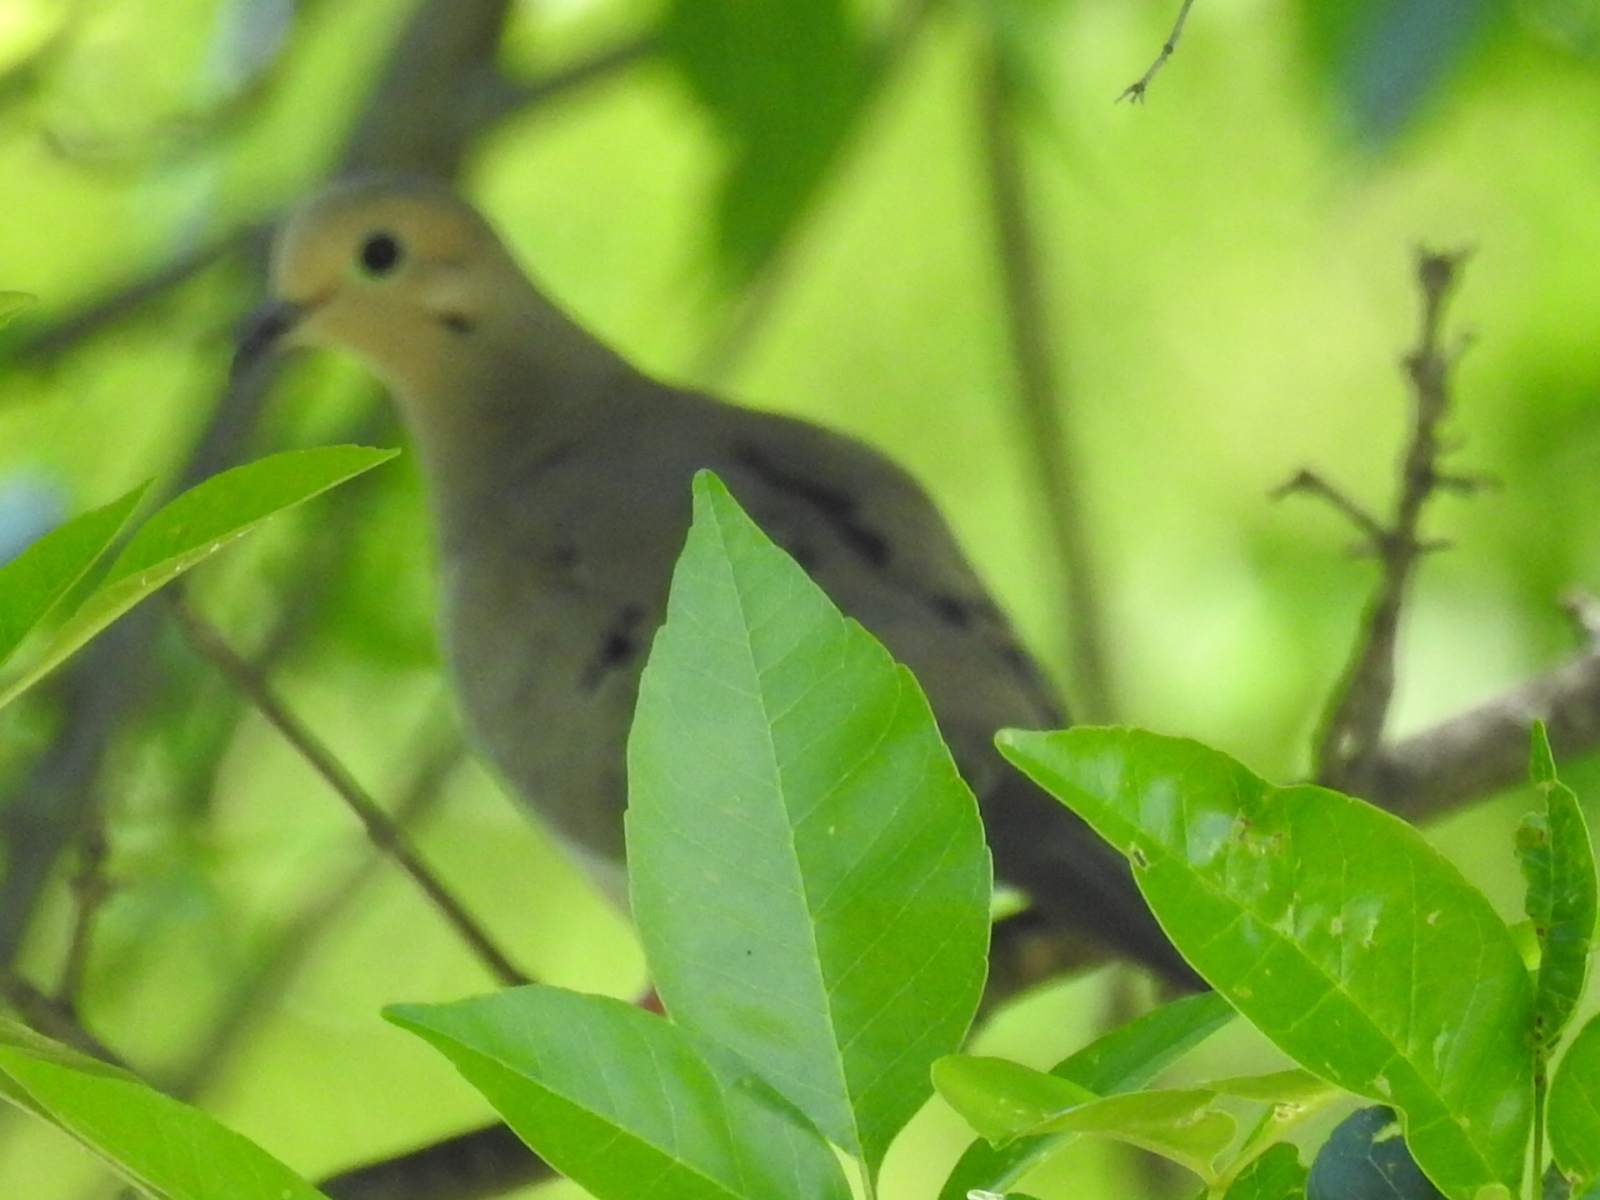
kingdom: Animalia
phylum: Chordata
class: Aves
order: Columbiformes
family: Columbidae
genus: Zenaida
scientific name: Zenaida macroura
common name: Mourning dove
